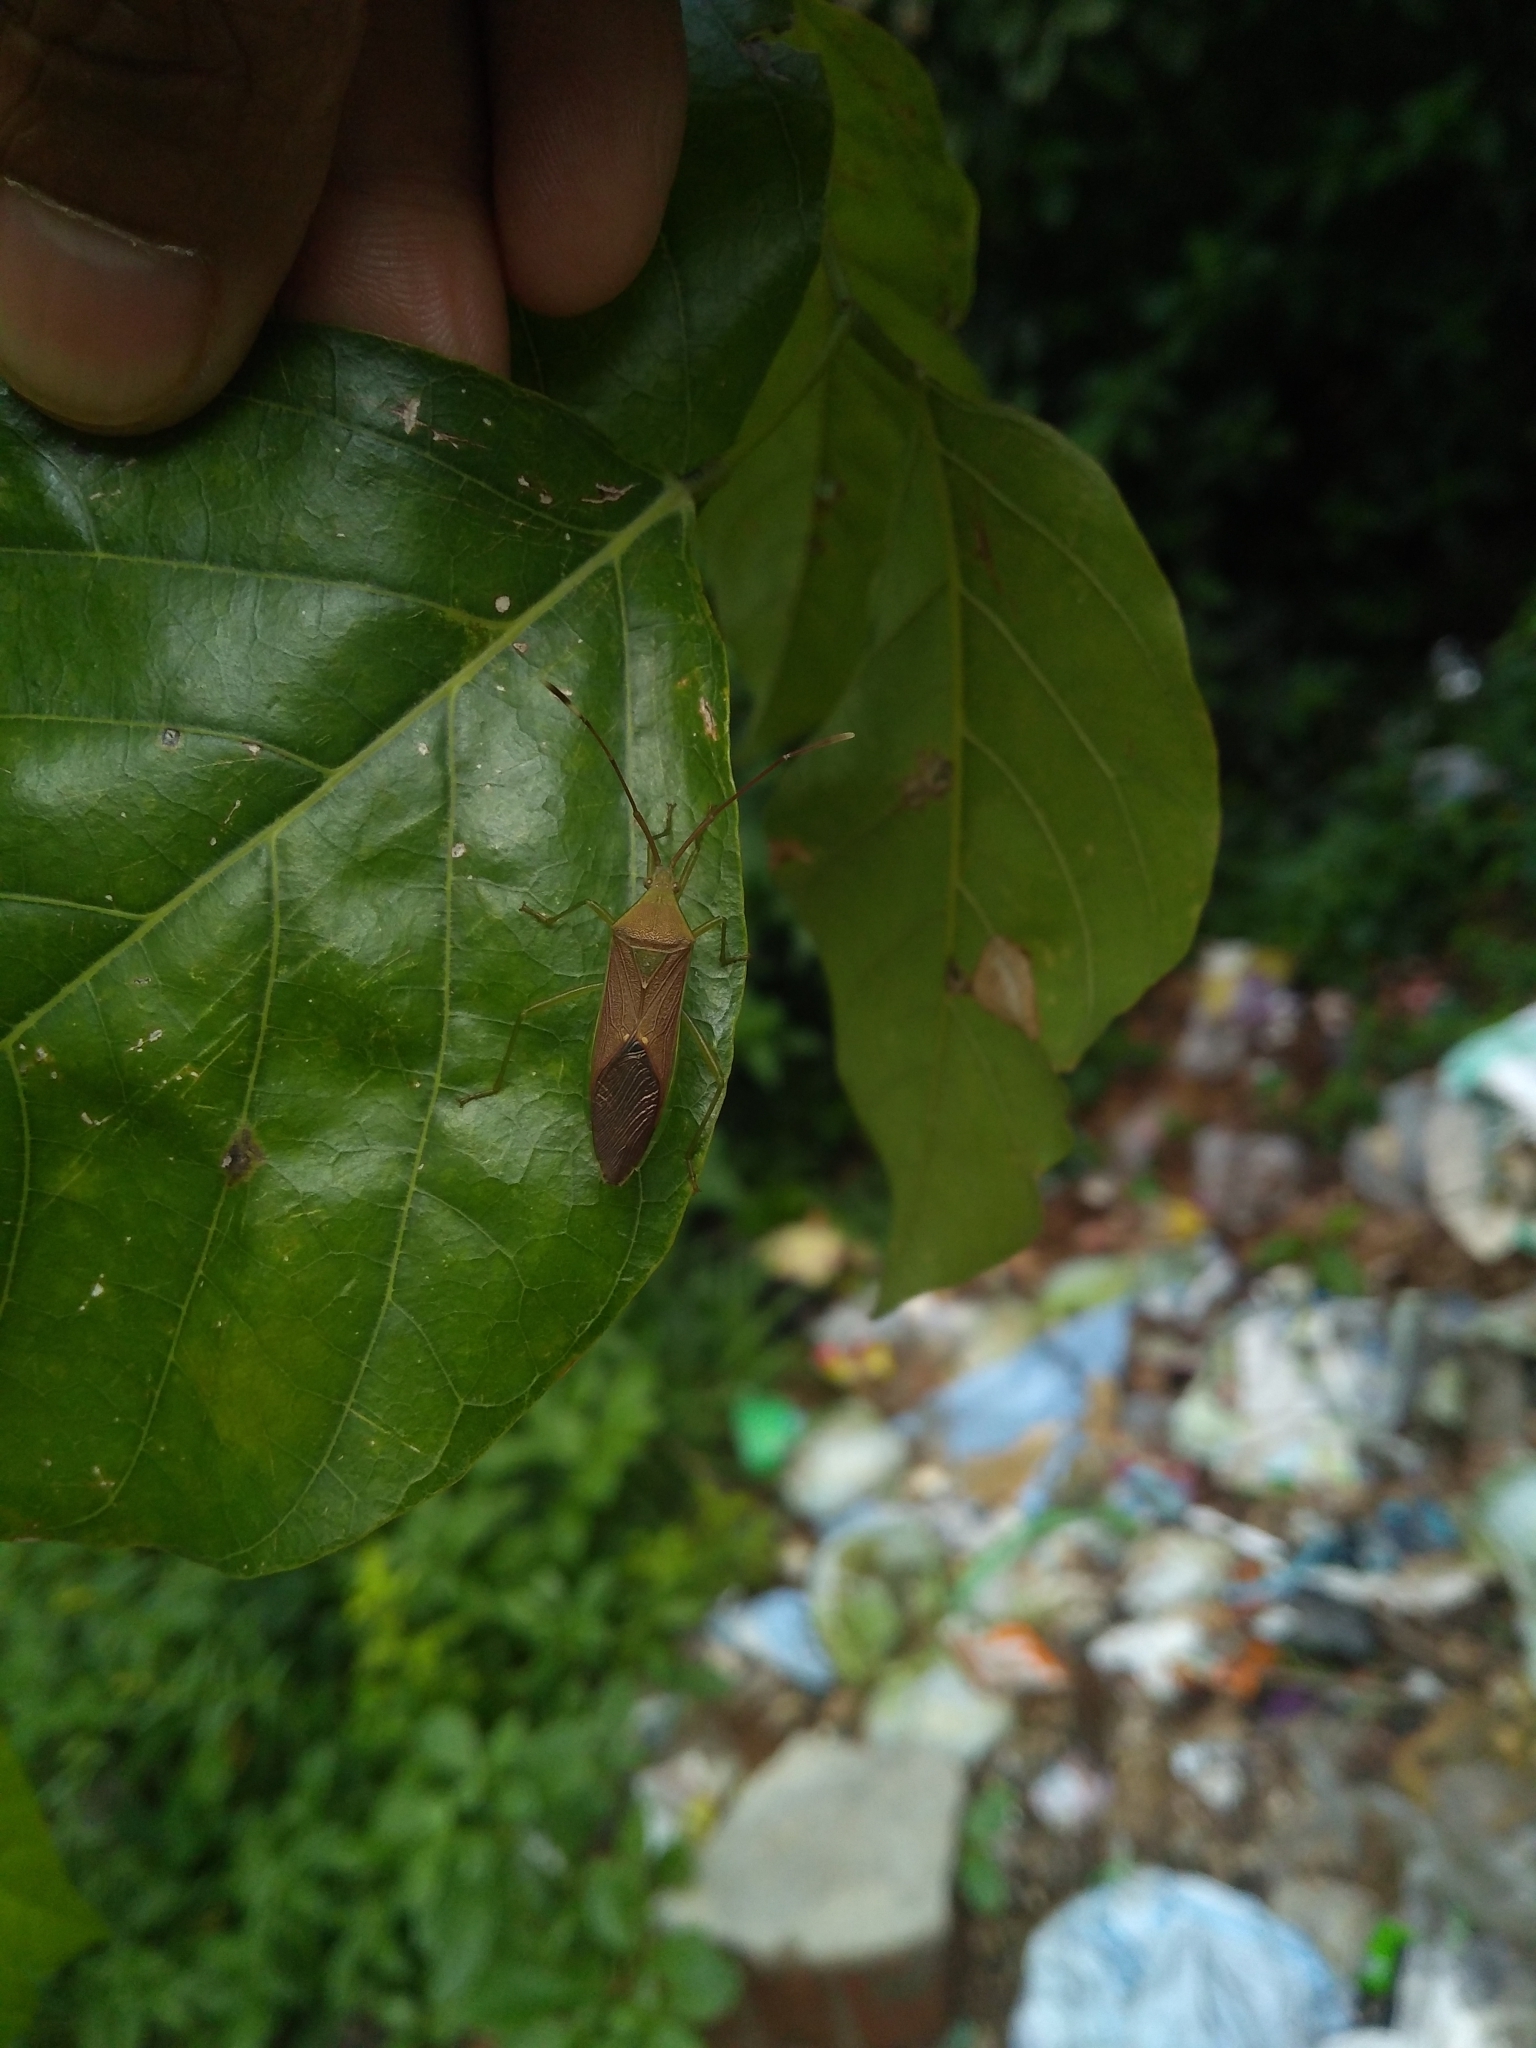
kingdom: Animalia
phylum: Arthropoda
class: Insecta
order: Hemiptera
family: Coreidae
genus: Homoeocerus
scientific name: Homoeocerus relatus
